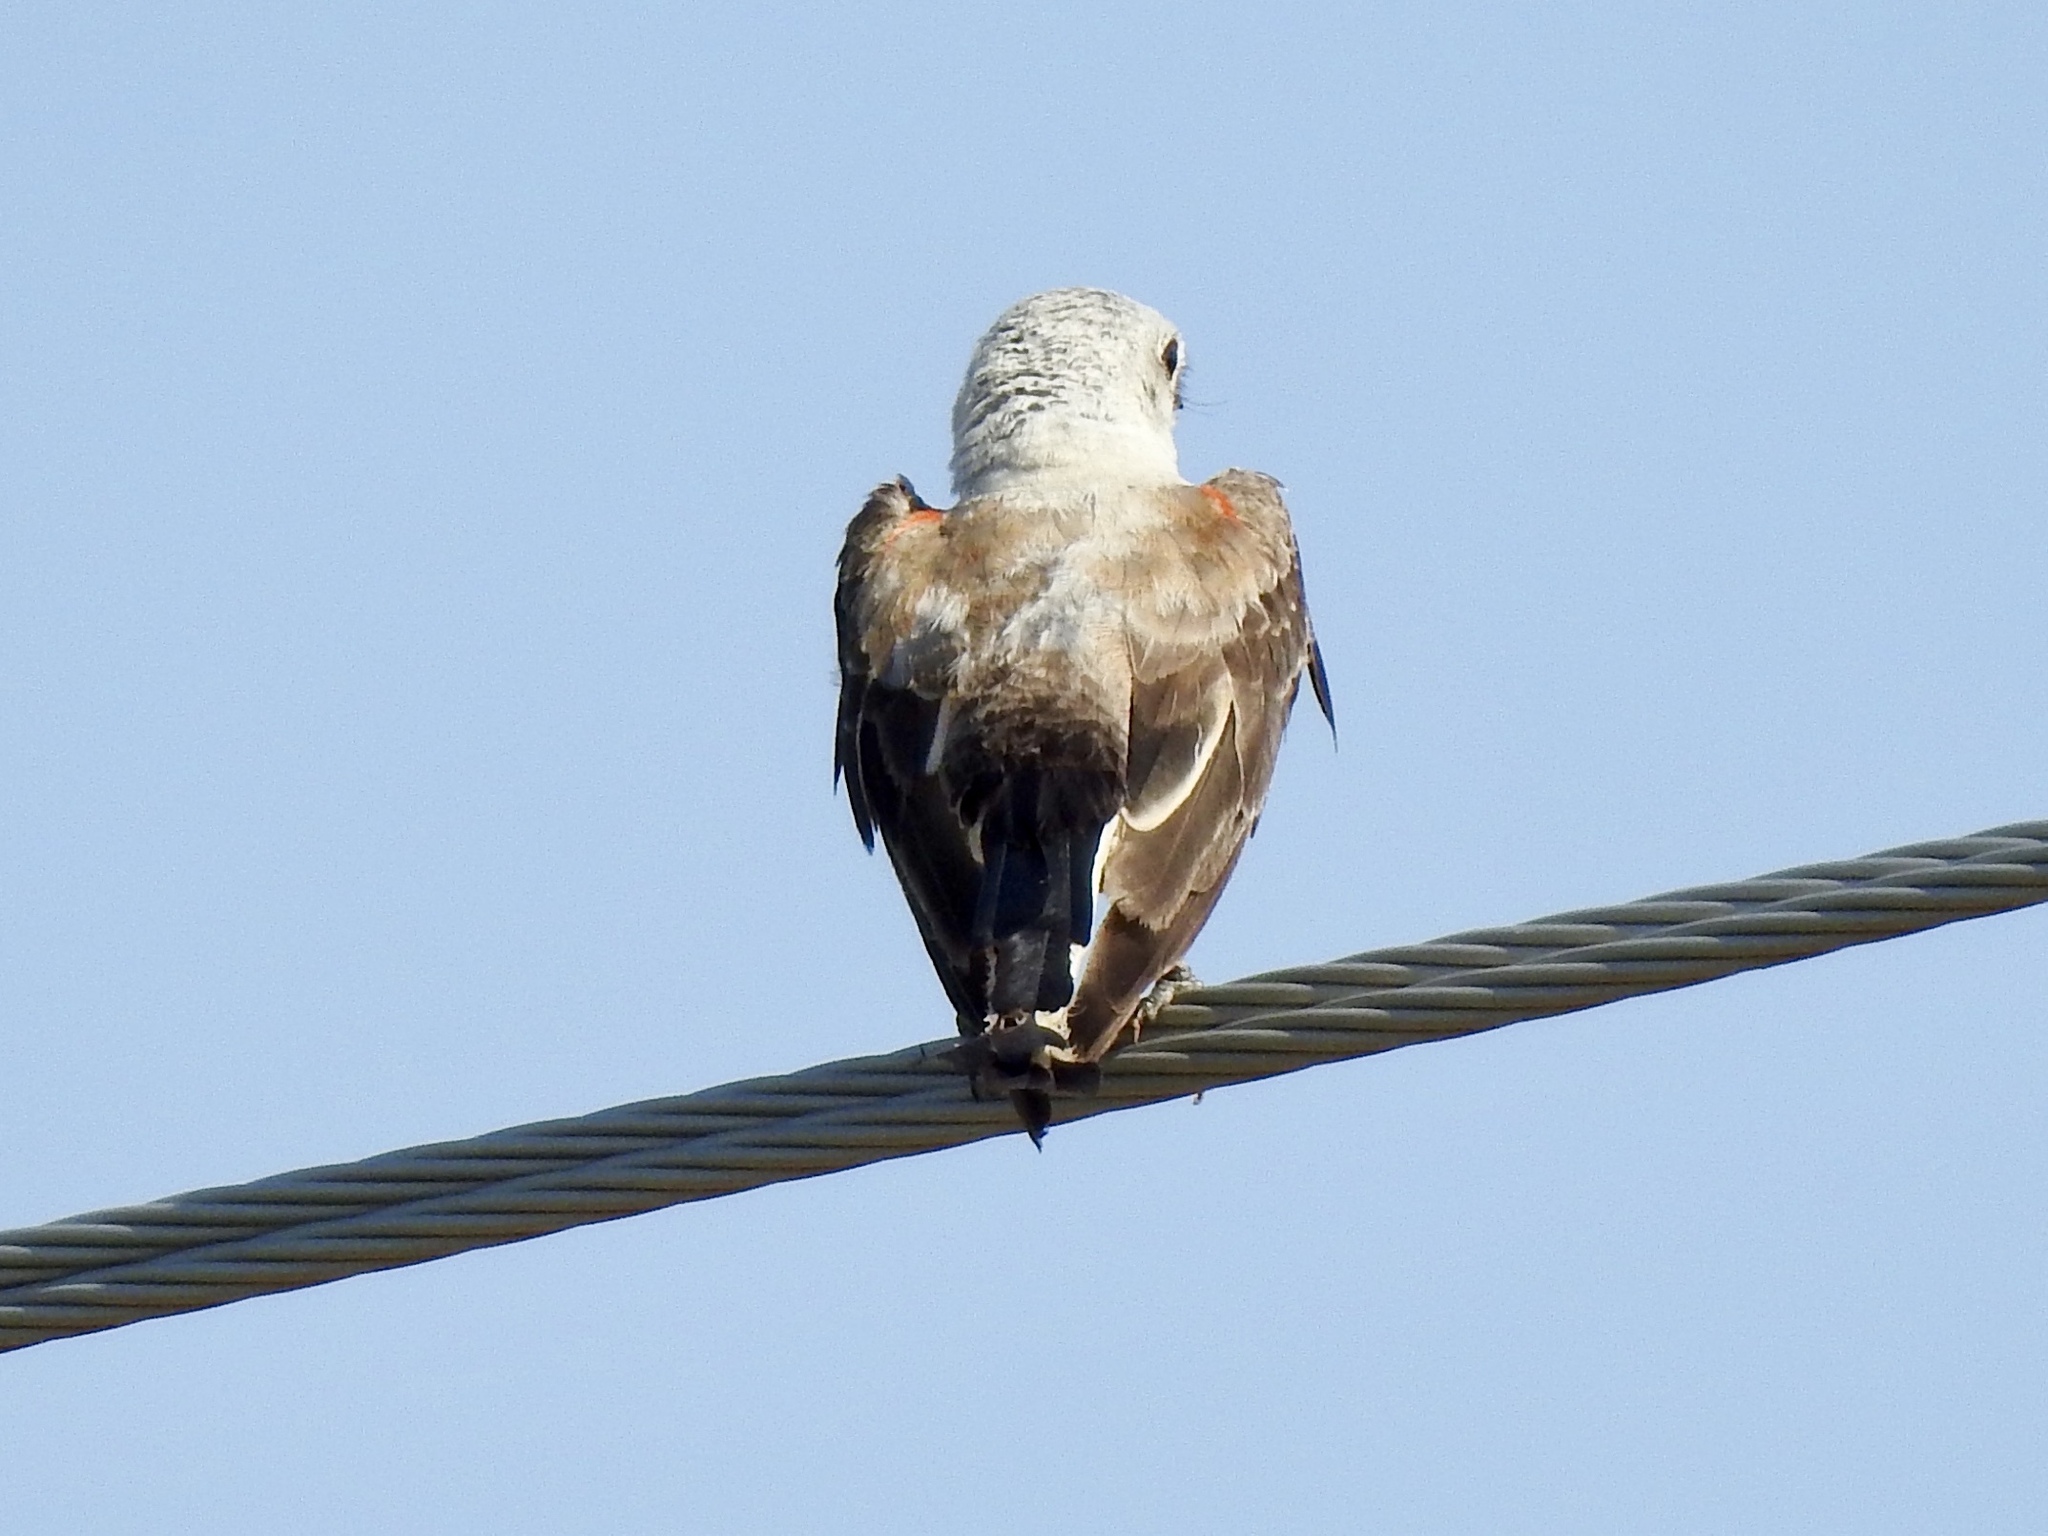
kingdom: Animalia
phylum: Chordata
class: Aves
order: Passeriformes
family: Tyrannidae
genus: Tyrannus
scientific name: Tyrannus forficatus
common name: Scissor-tailed flycatcher
